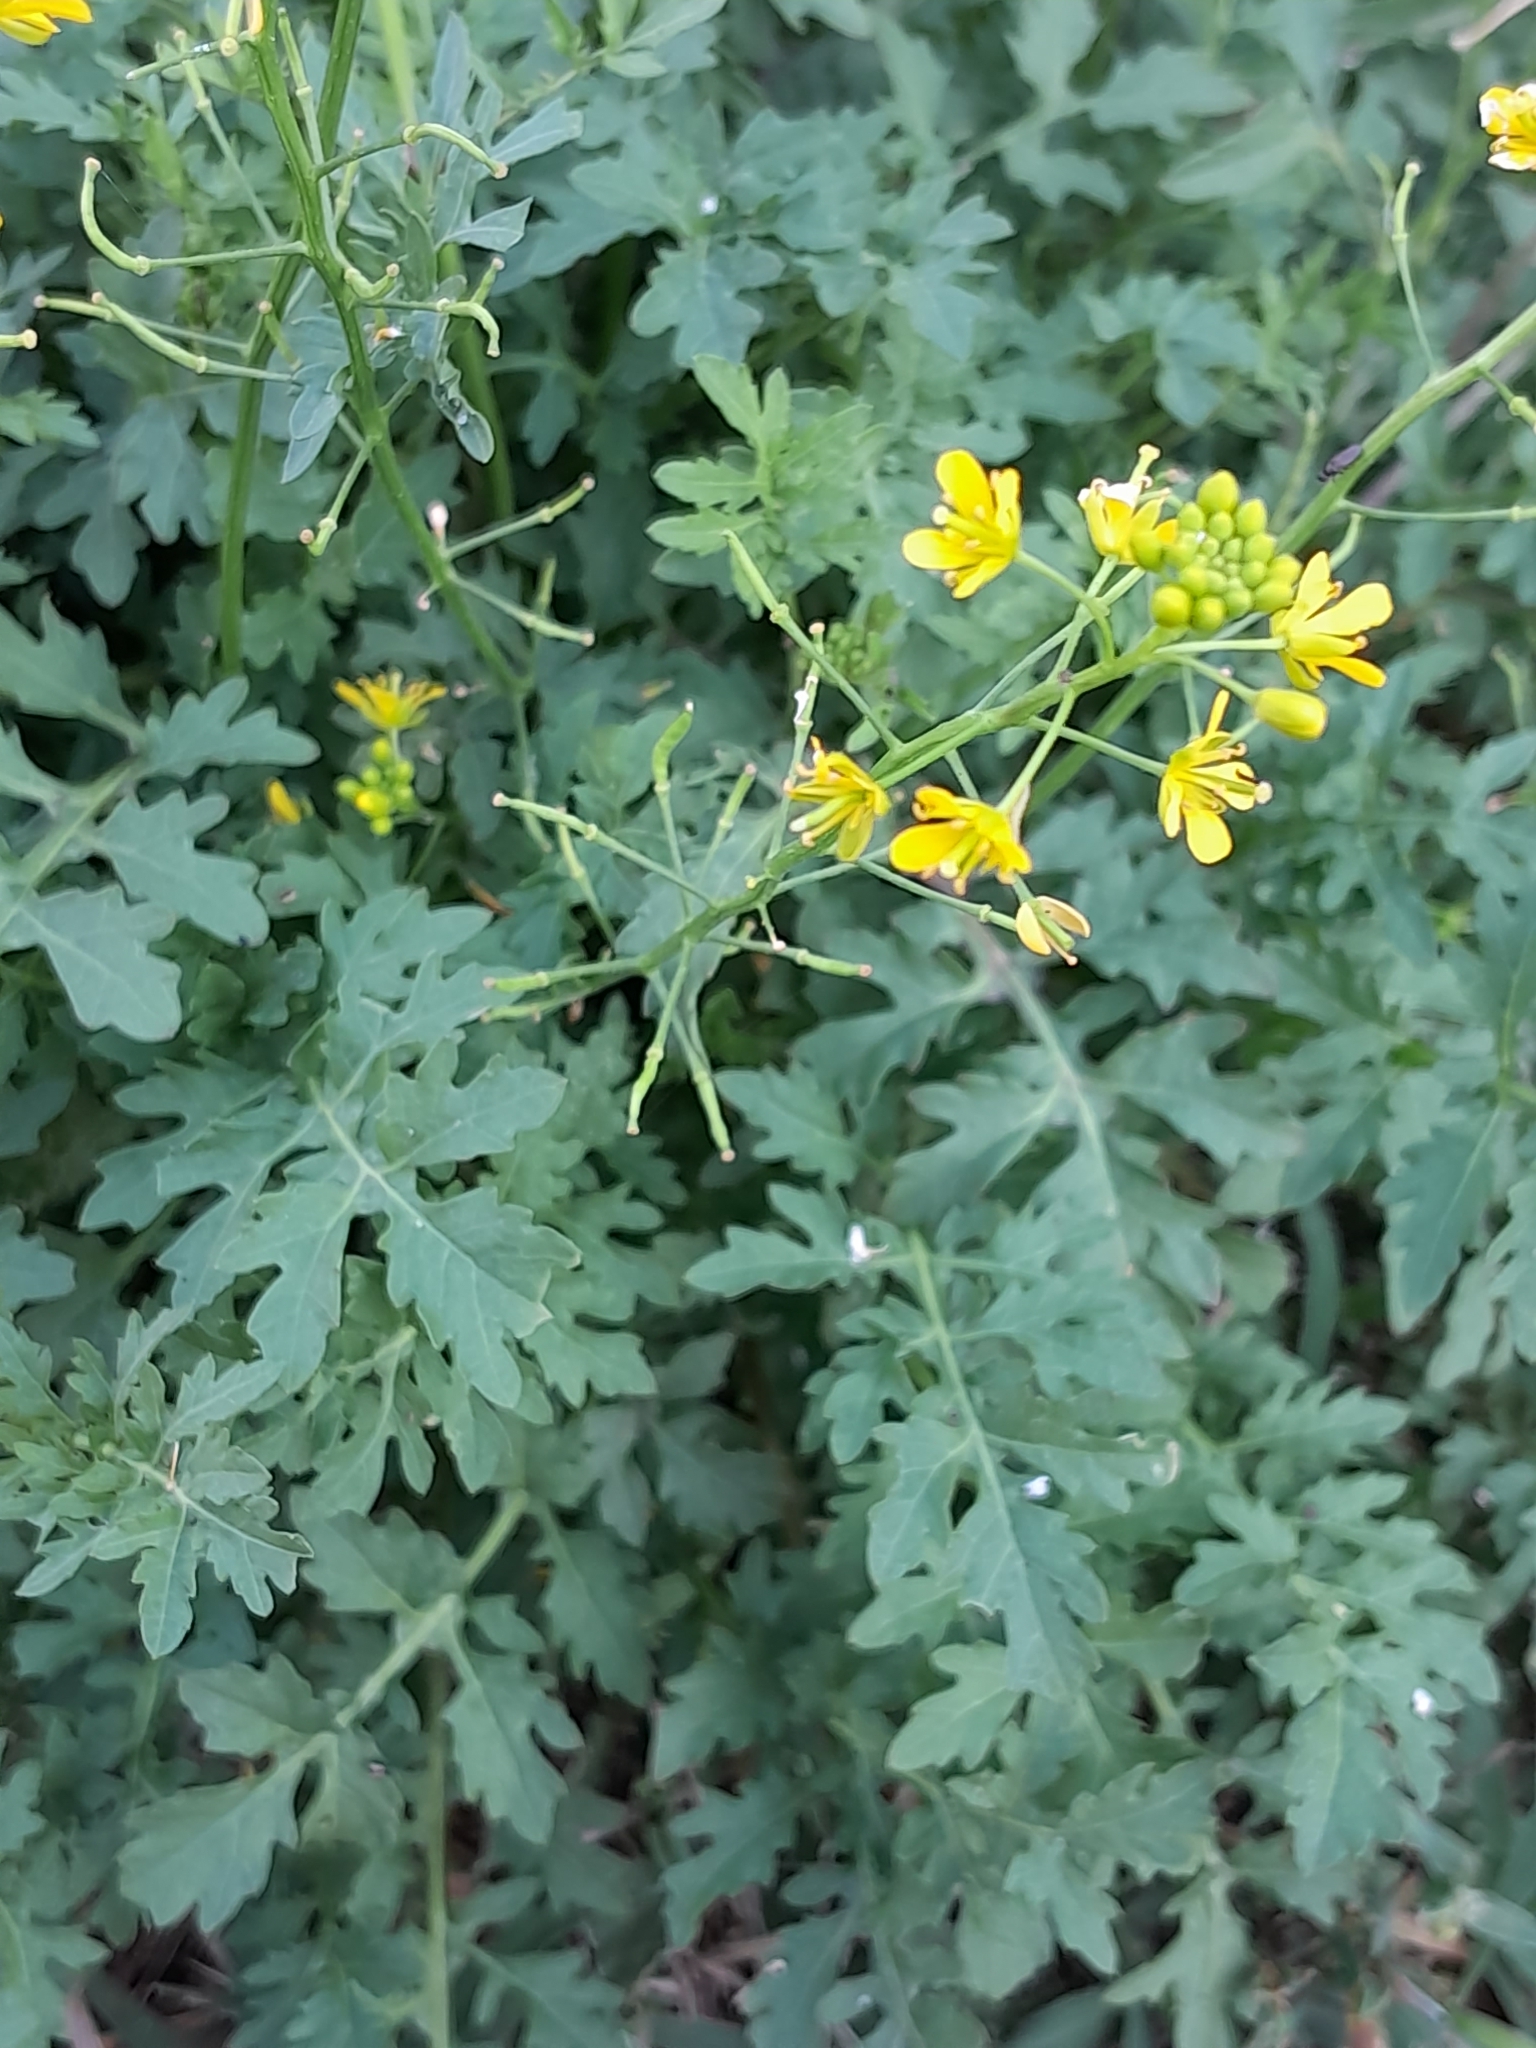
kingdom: Plantae
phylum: Tracheophyta
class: Magnoliopsida
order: Brassicales
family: Brassicaceae
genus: Rorippa
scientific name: Rorippa sylvestris
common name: Creeping yellowcress
